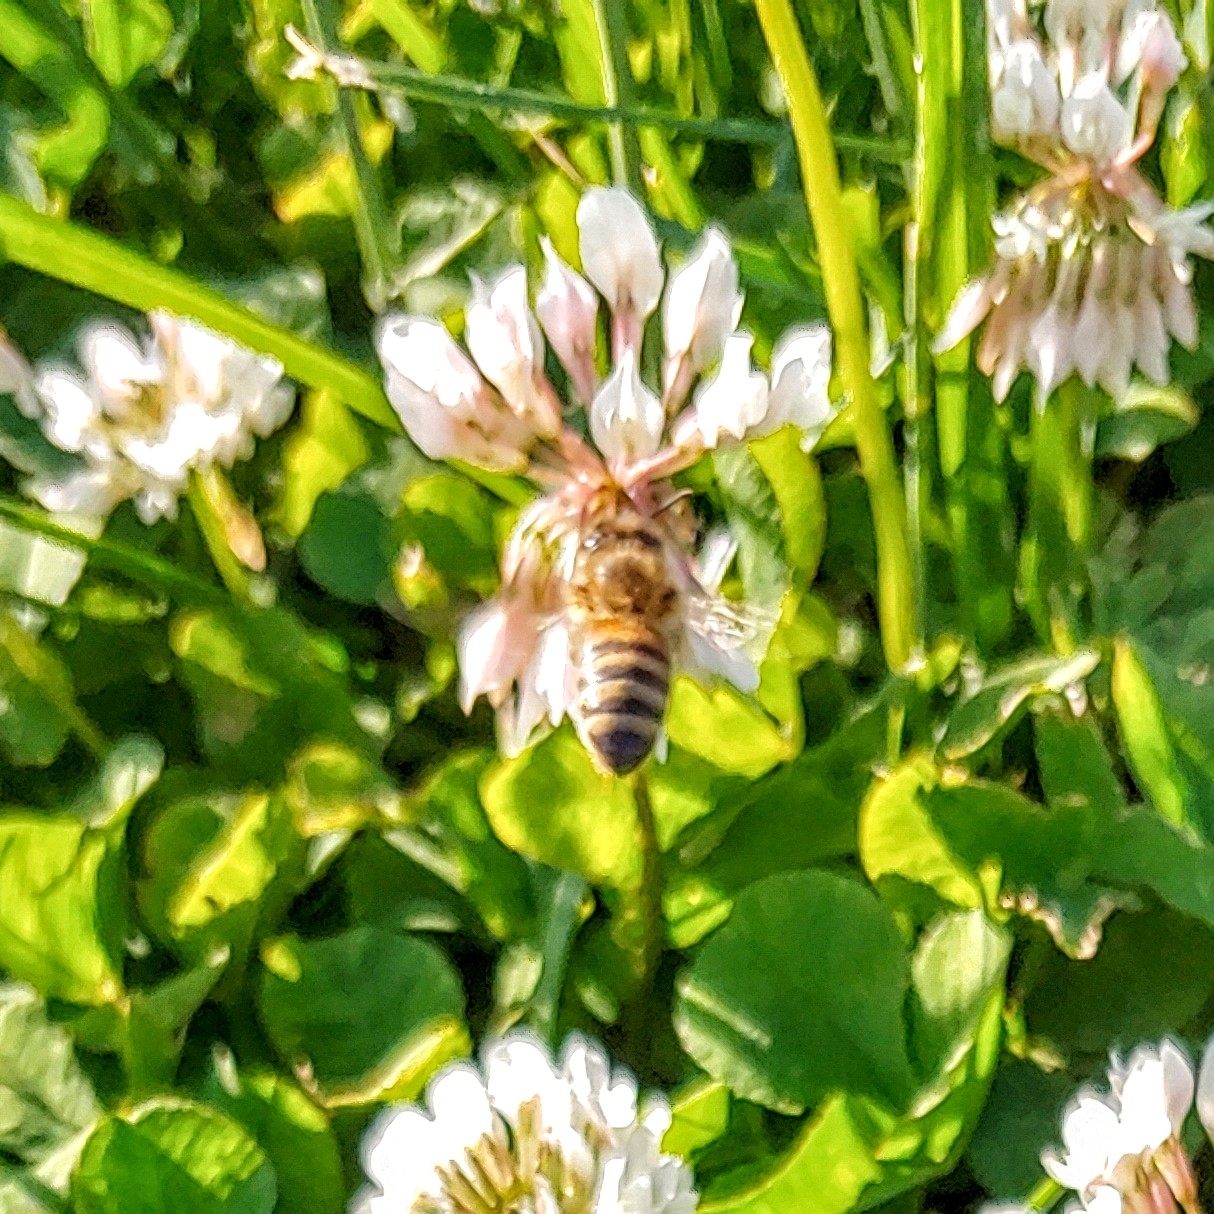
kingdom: Animalia
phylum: Arthropoda
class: Insecta
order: Hymenoptera
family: Apidae
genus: Apis
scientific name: Apis mellifera
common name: Honey bee
